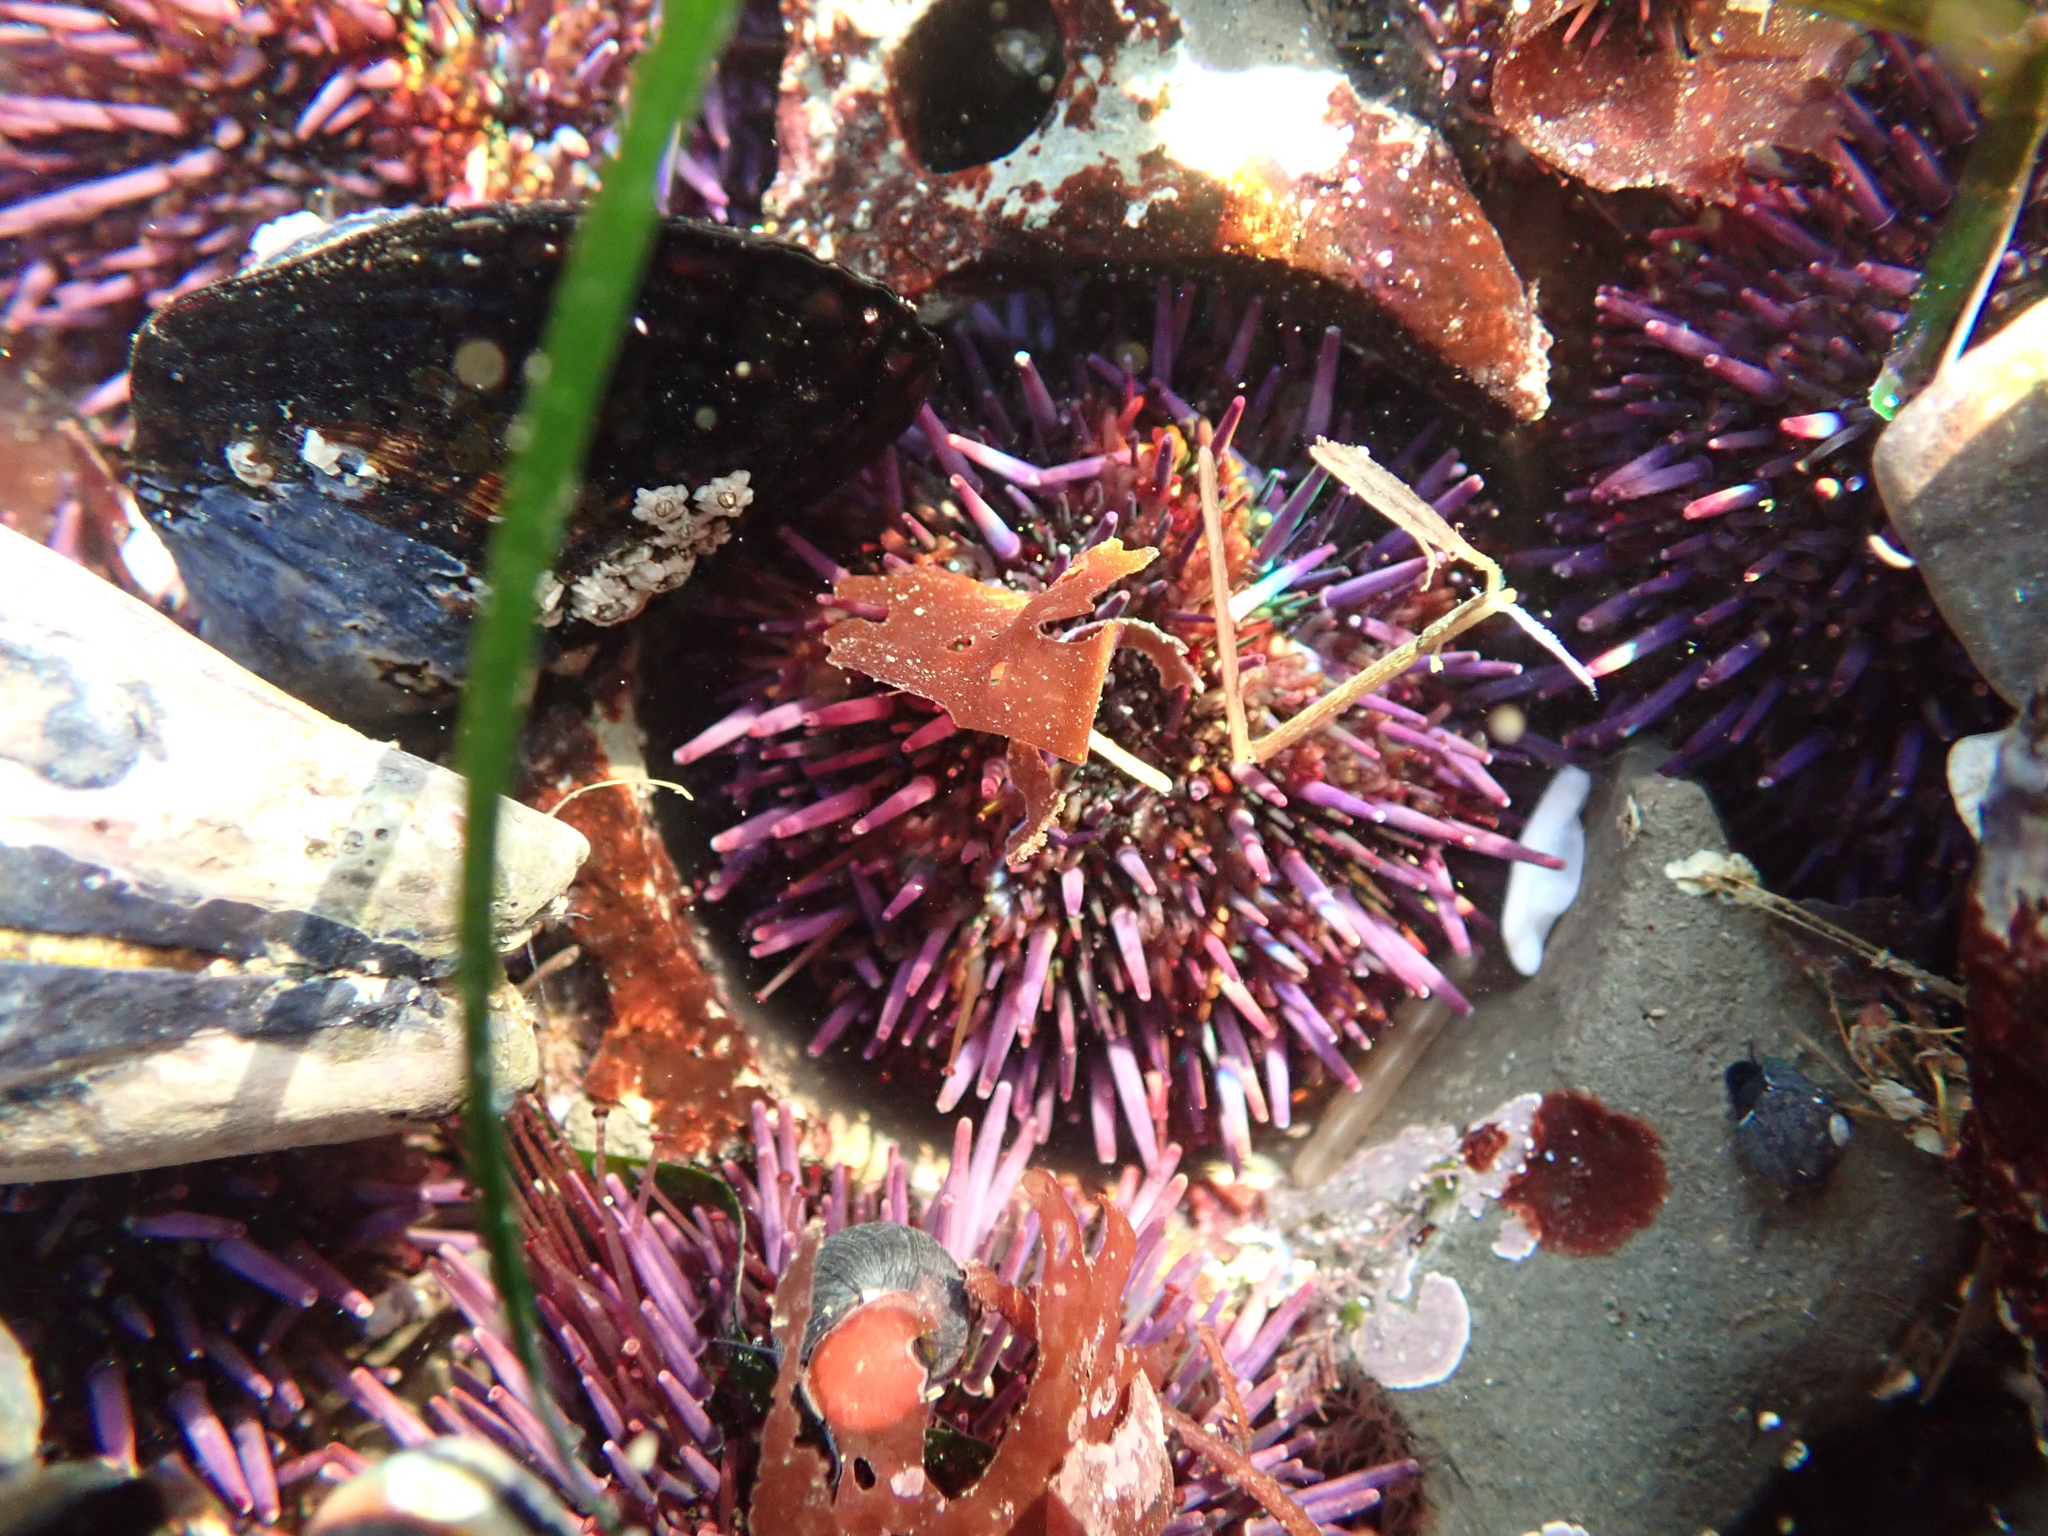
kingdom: Animalia
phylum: Echinodermata
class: Echinoidea
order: Camarodonta
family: Strongylocentrotidae
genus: Strongylocentrotus
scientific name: Strongylocentrotus purpuratus
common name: Purple sea urchin
